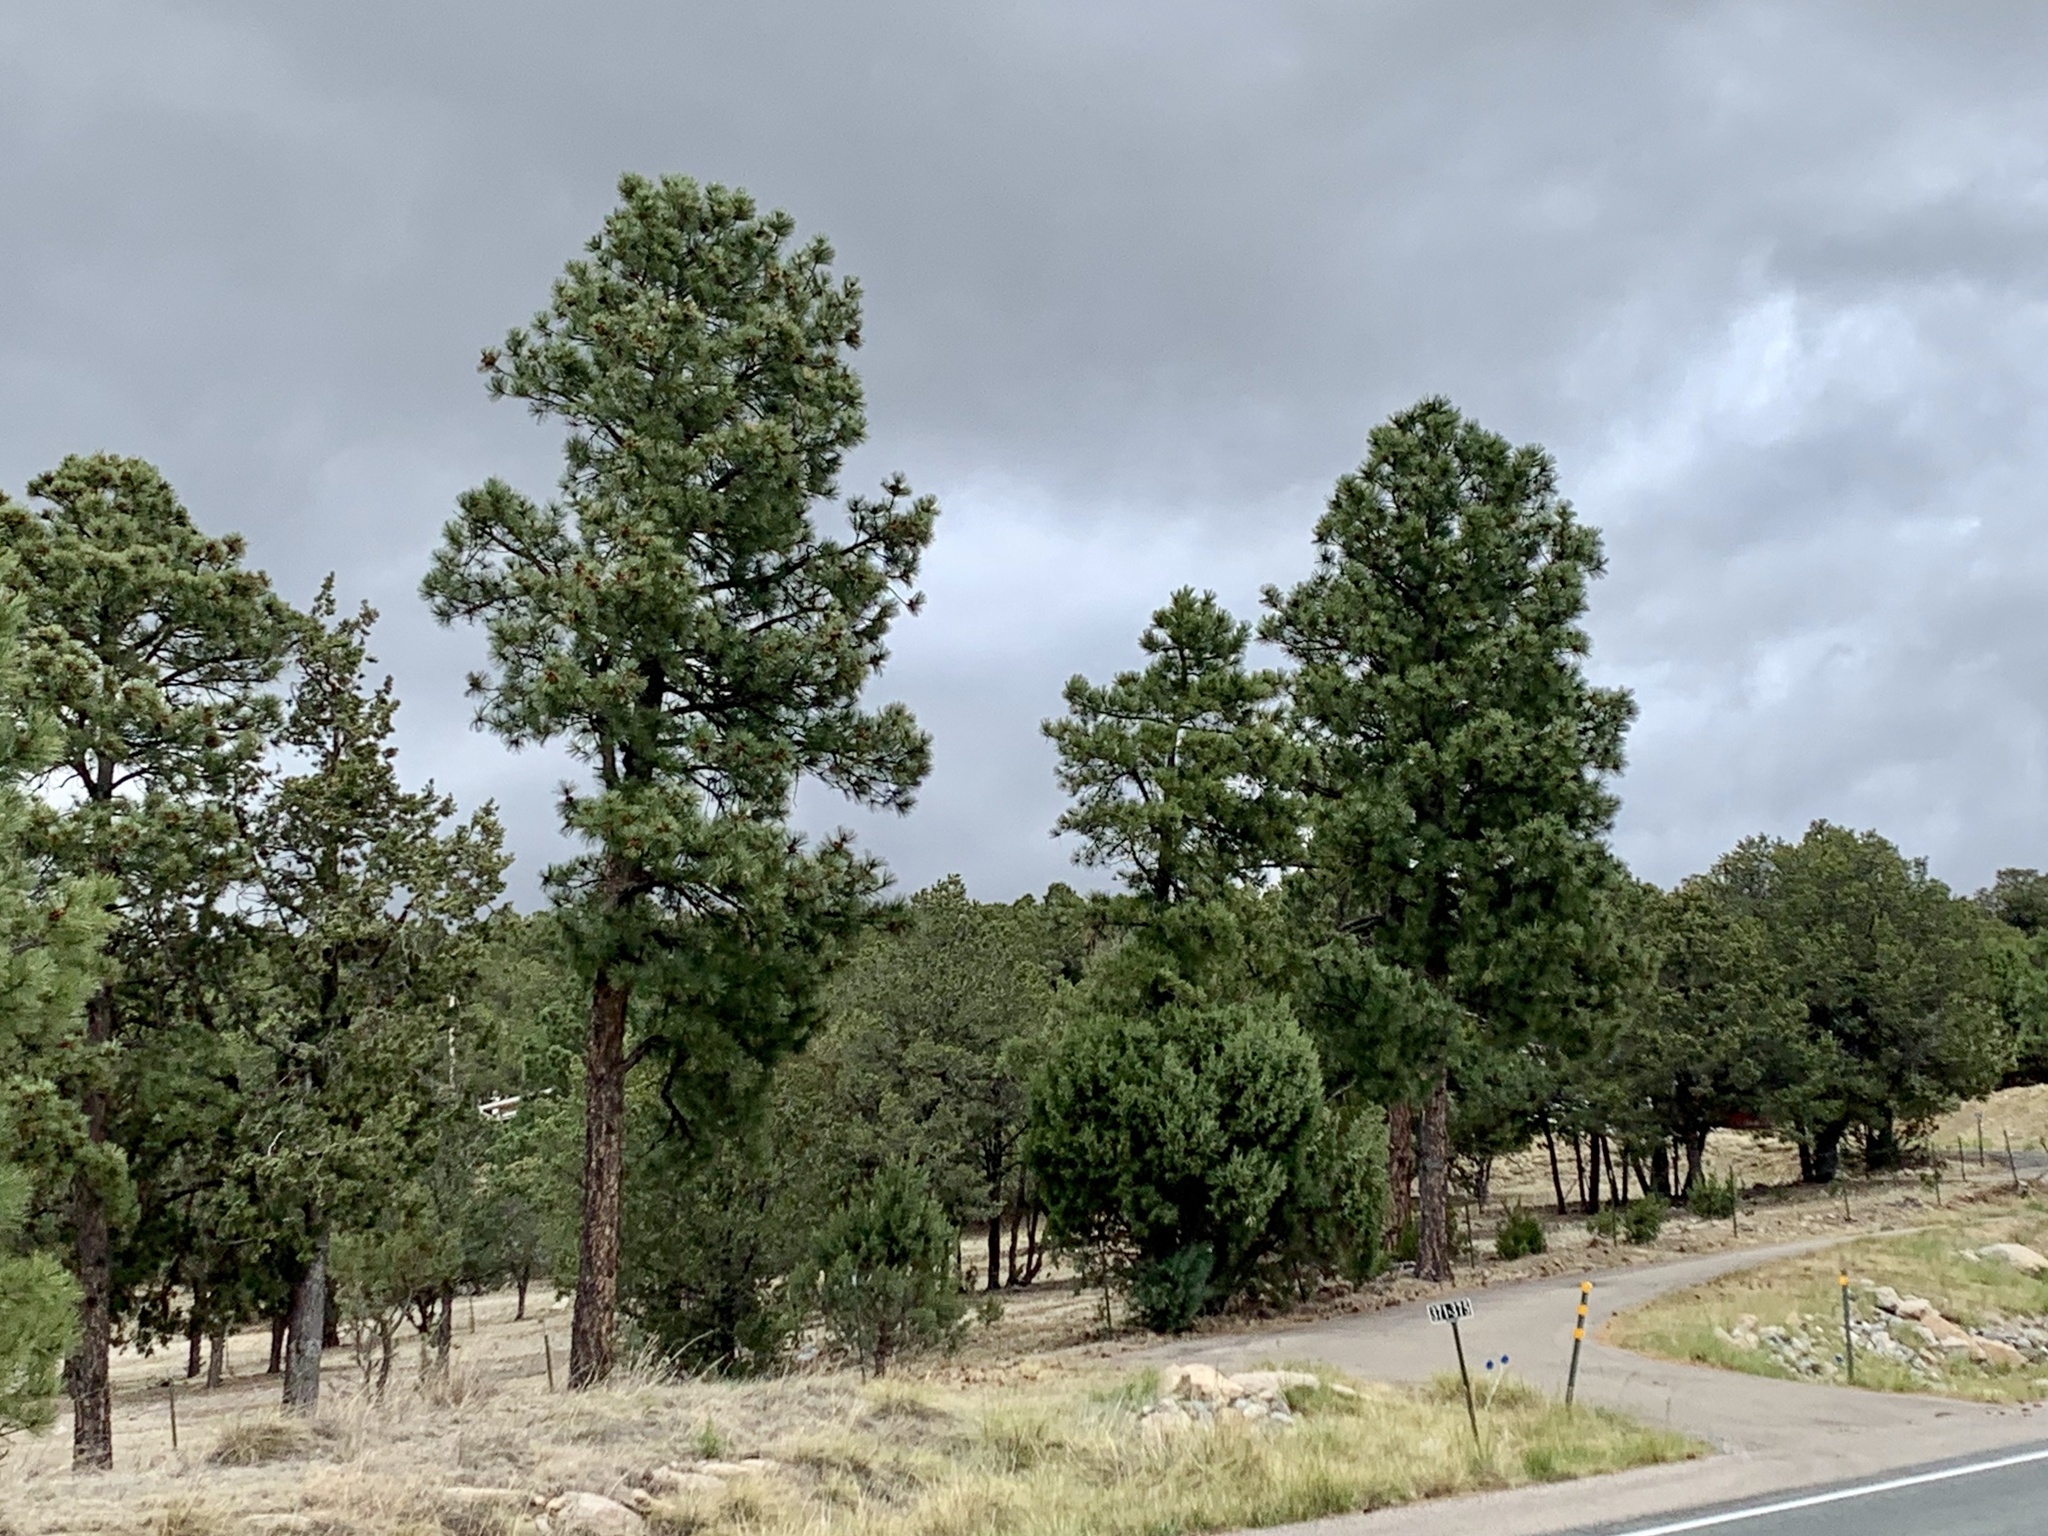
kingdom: Plantae
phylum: Tracheophyta
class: Pinopsida
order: Pinales
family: Pinaceae
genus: Pinus
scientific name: Pinus ponderosa
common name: Western yellow-pine
